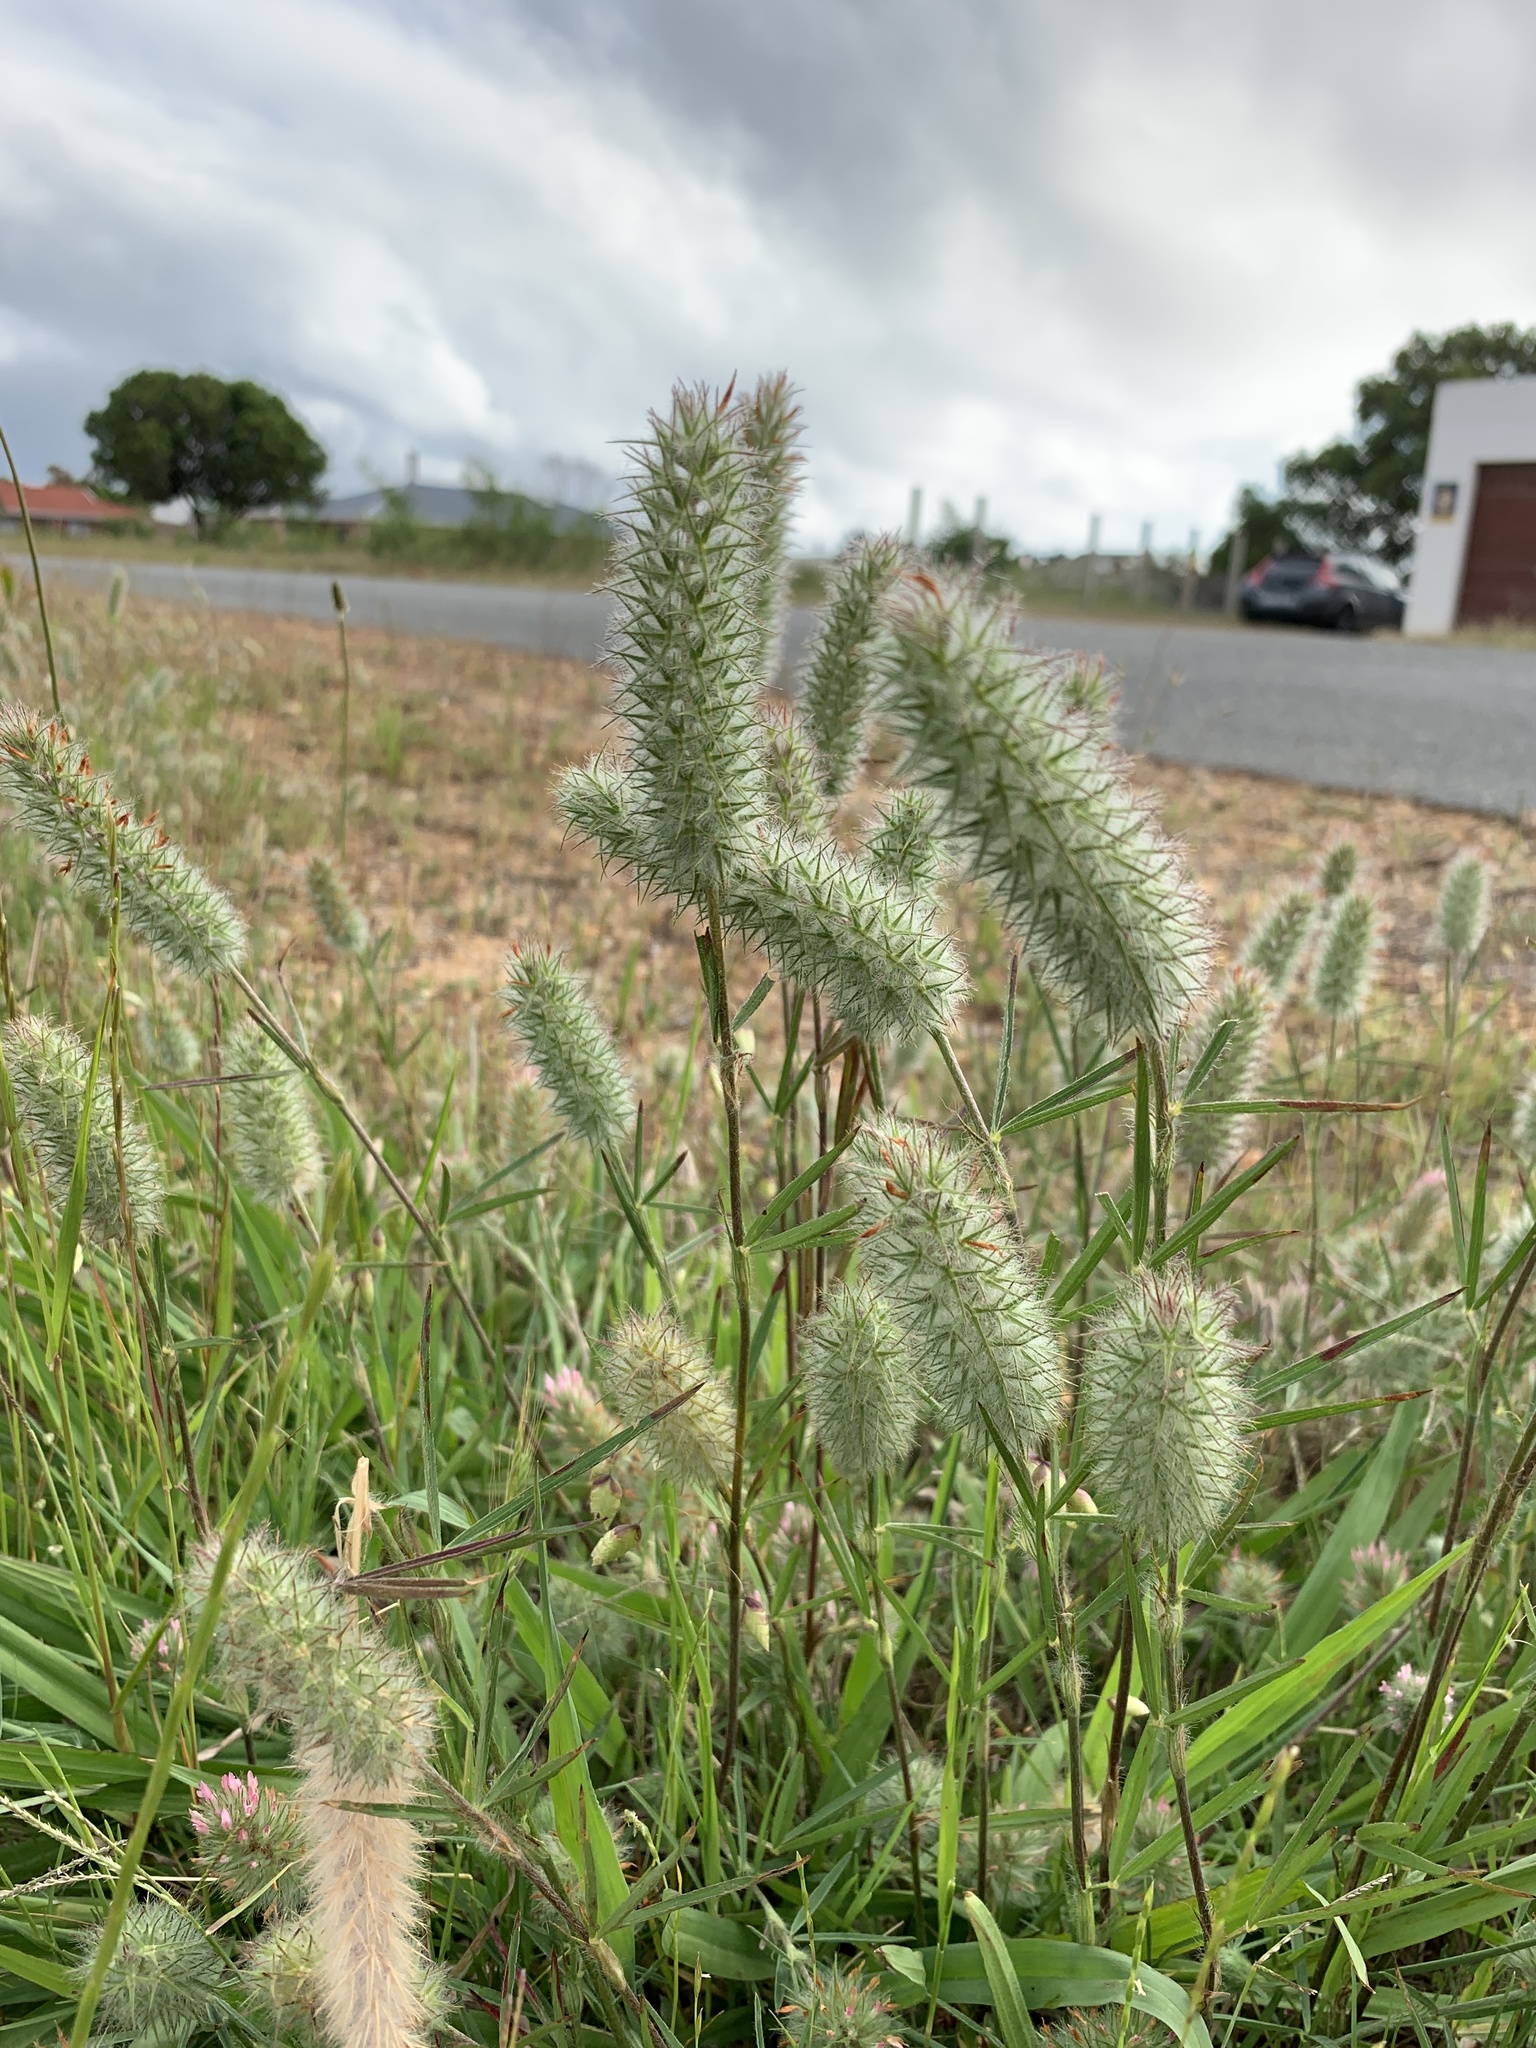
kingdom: Plantae
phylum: Tracheophyta
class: Magnoliopsida
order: Fabales
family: Fabaceae
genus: Trifolium
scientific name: Trifolium angustifolium
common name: Narrow clover
